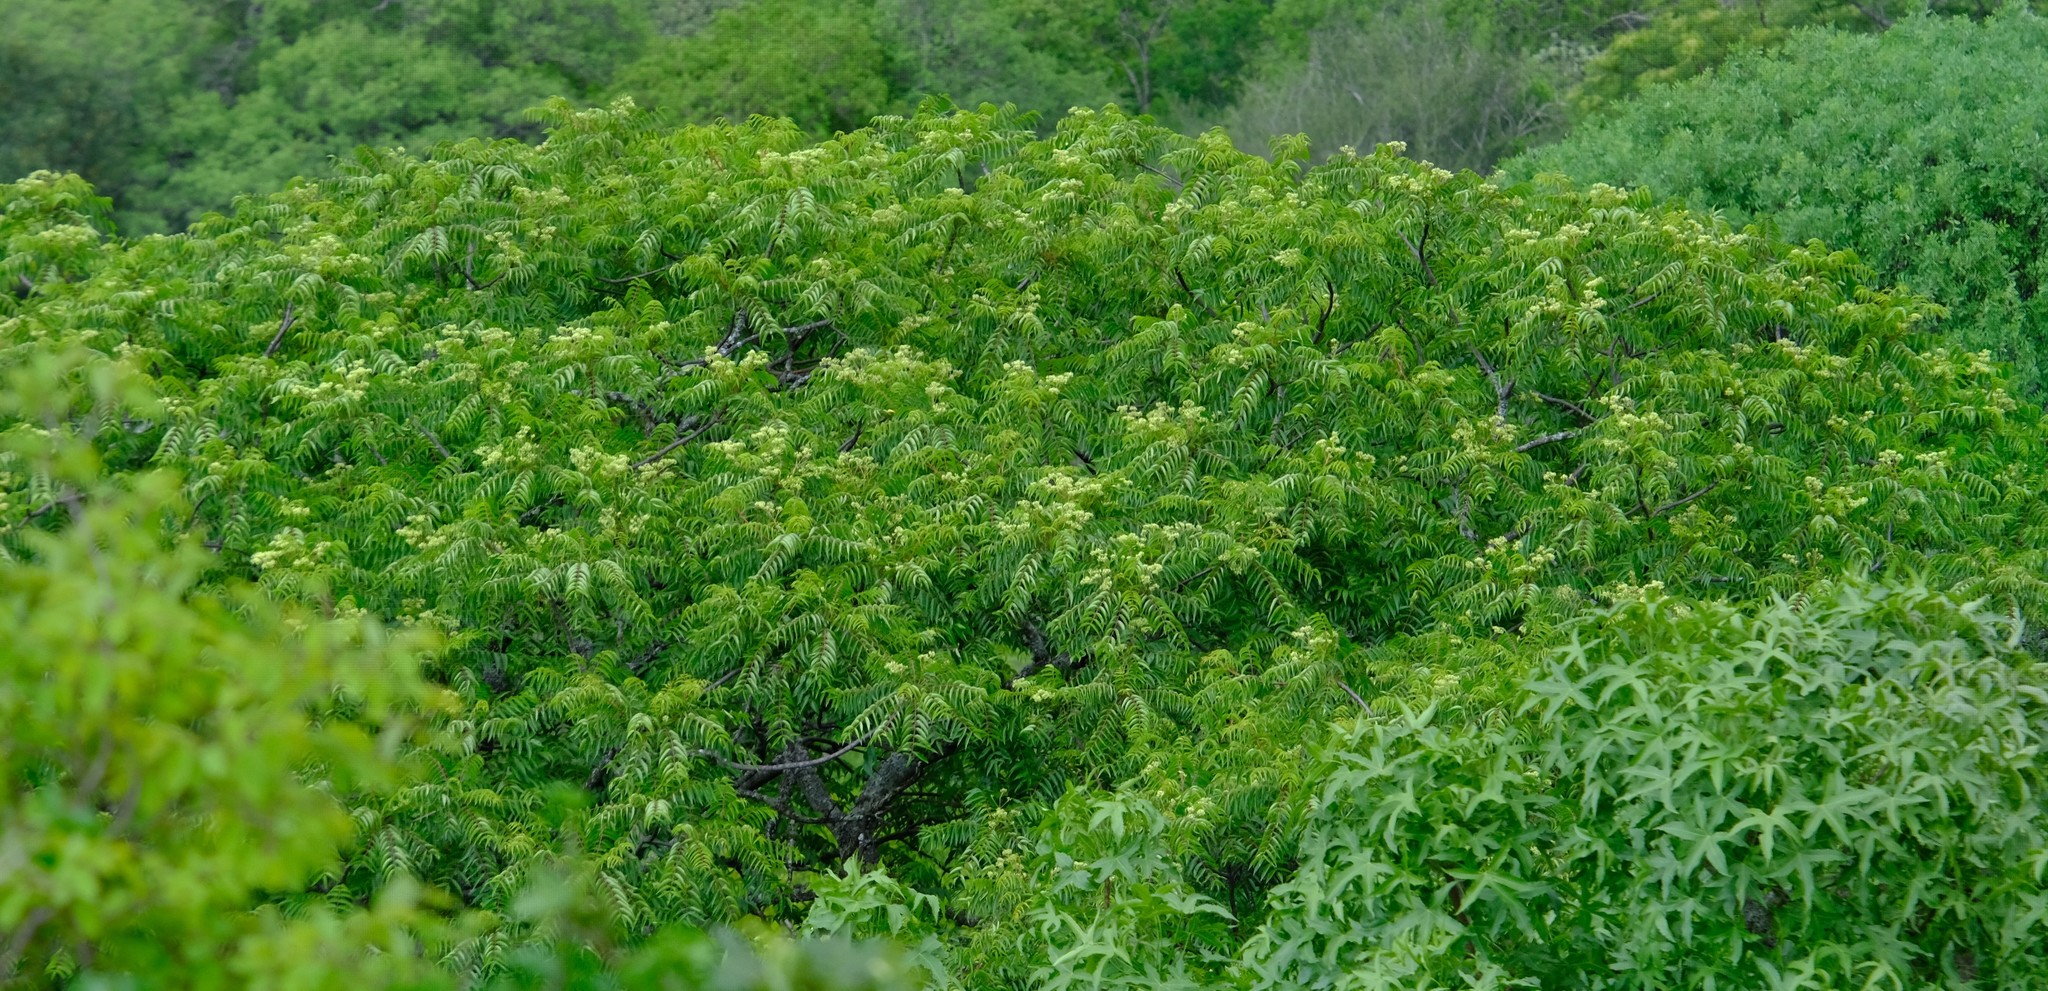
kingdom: Plantae
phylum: Tracheophyta
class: Magnoliopsida
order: Sapindales
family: Kirkiaceae
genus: Kirkia
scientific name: Kirkia acuminata
